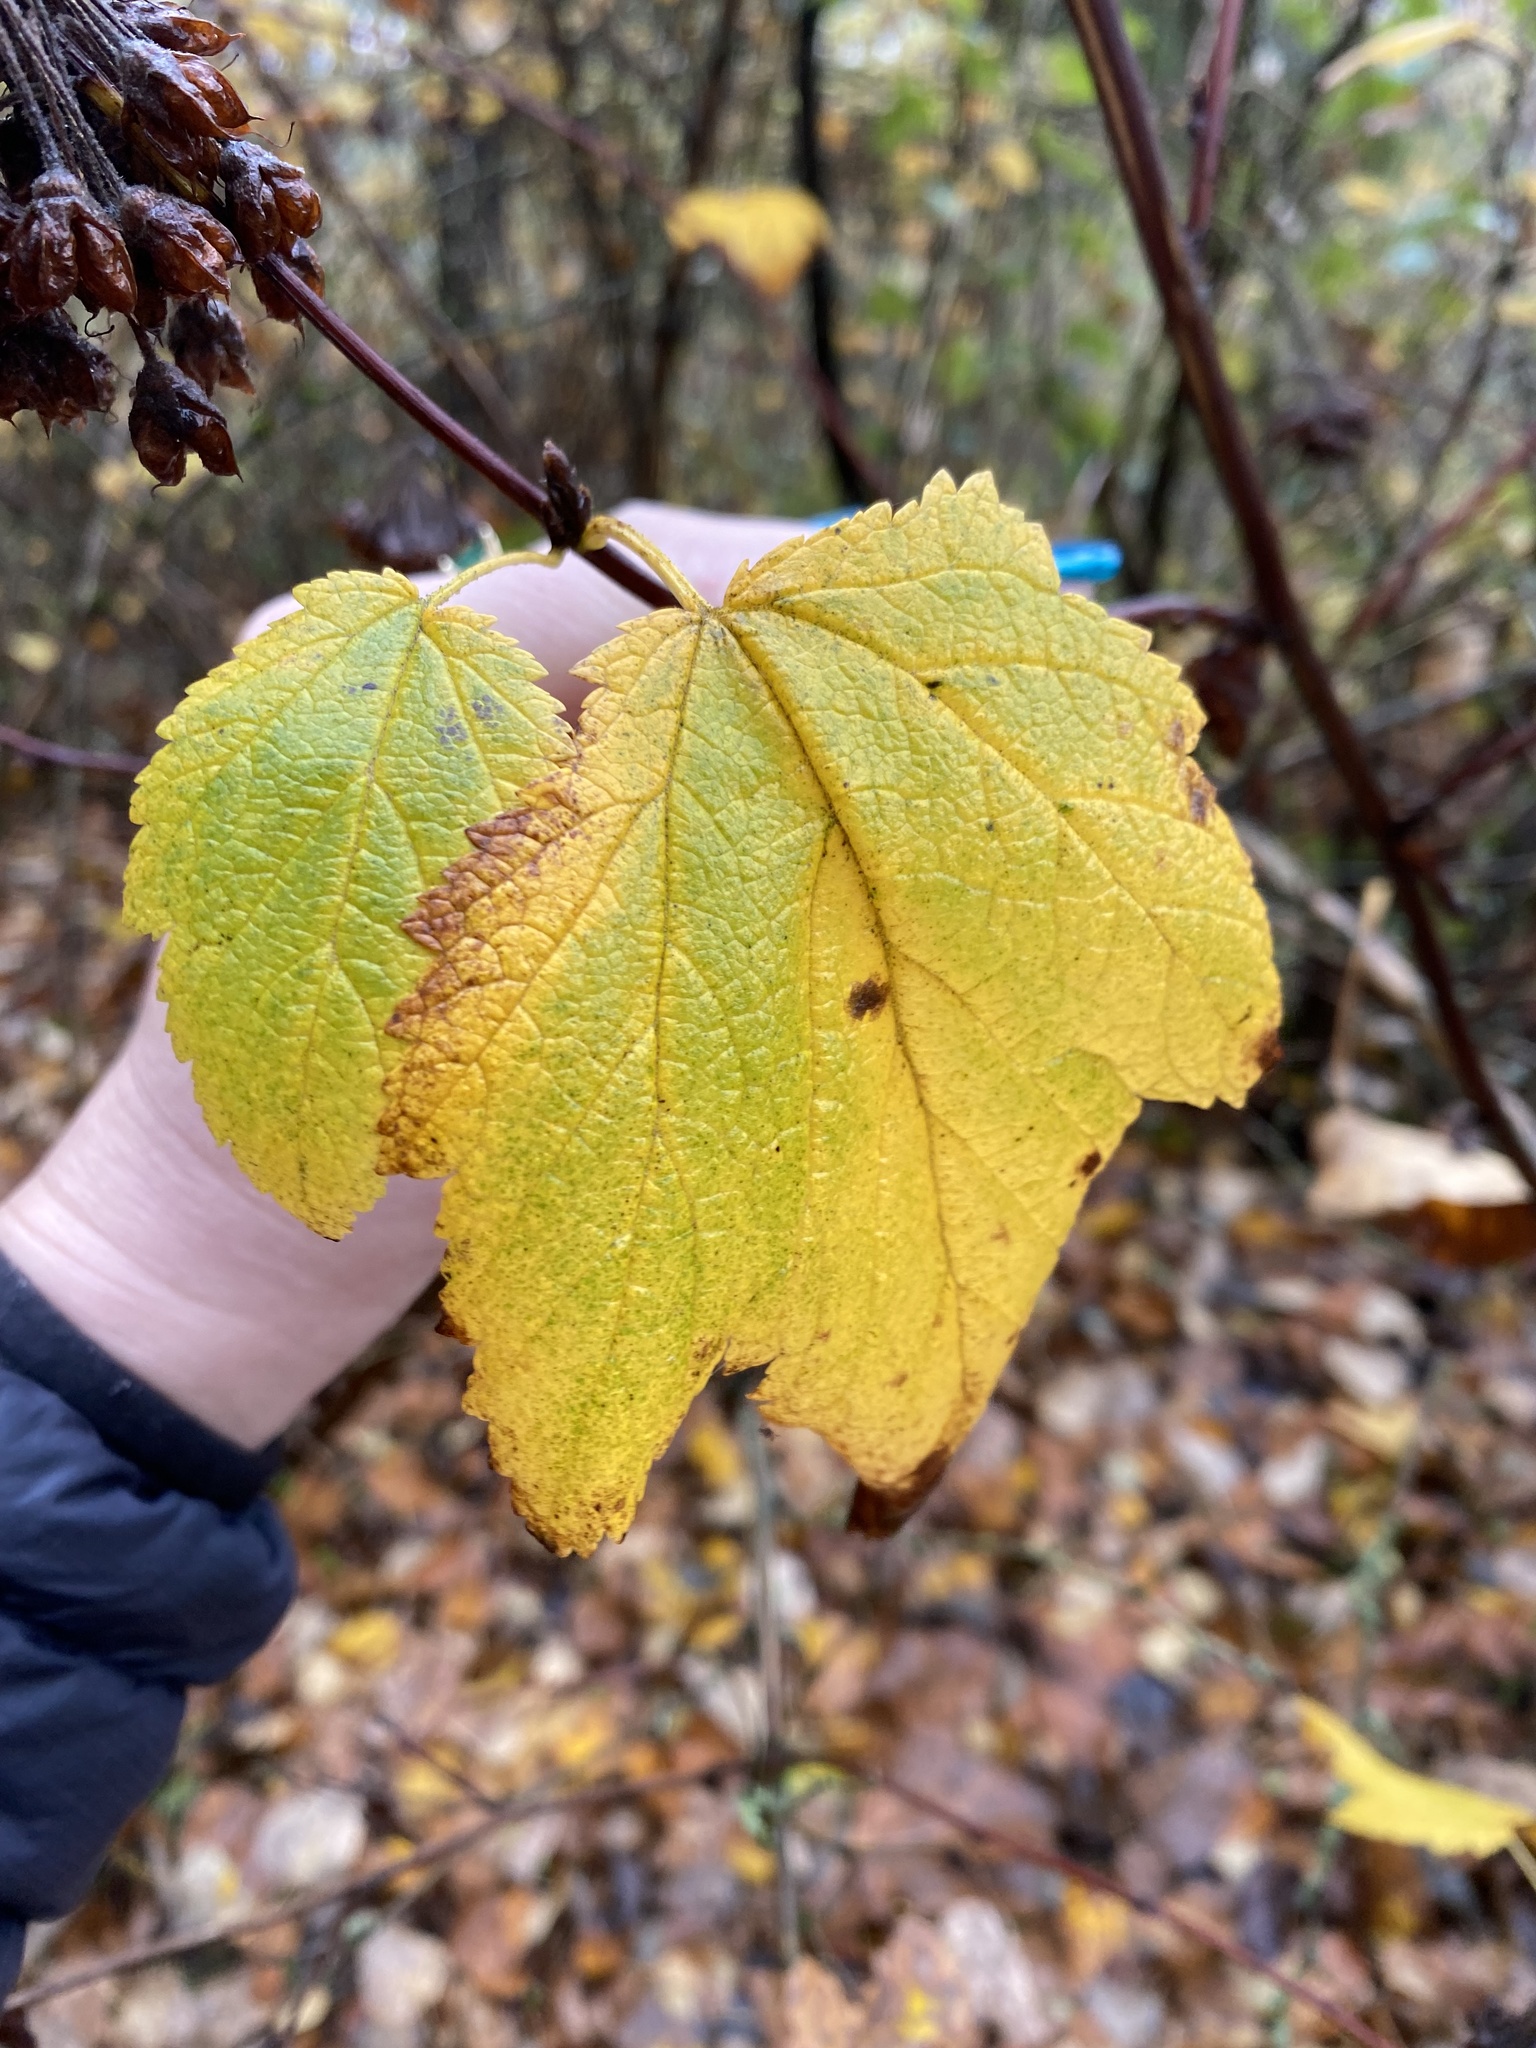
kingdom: Plantae
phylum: Tracheophyta
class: Magnoliopsida
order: Rosales
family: Rosaceae
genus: Physocarpus
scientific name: Physocarpus capitatus
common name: Pacific ninebark
